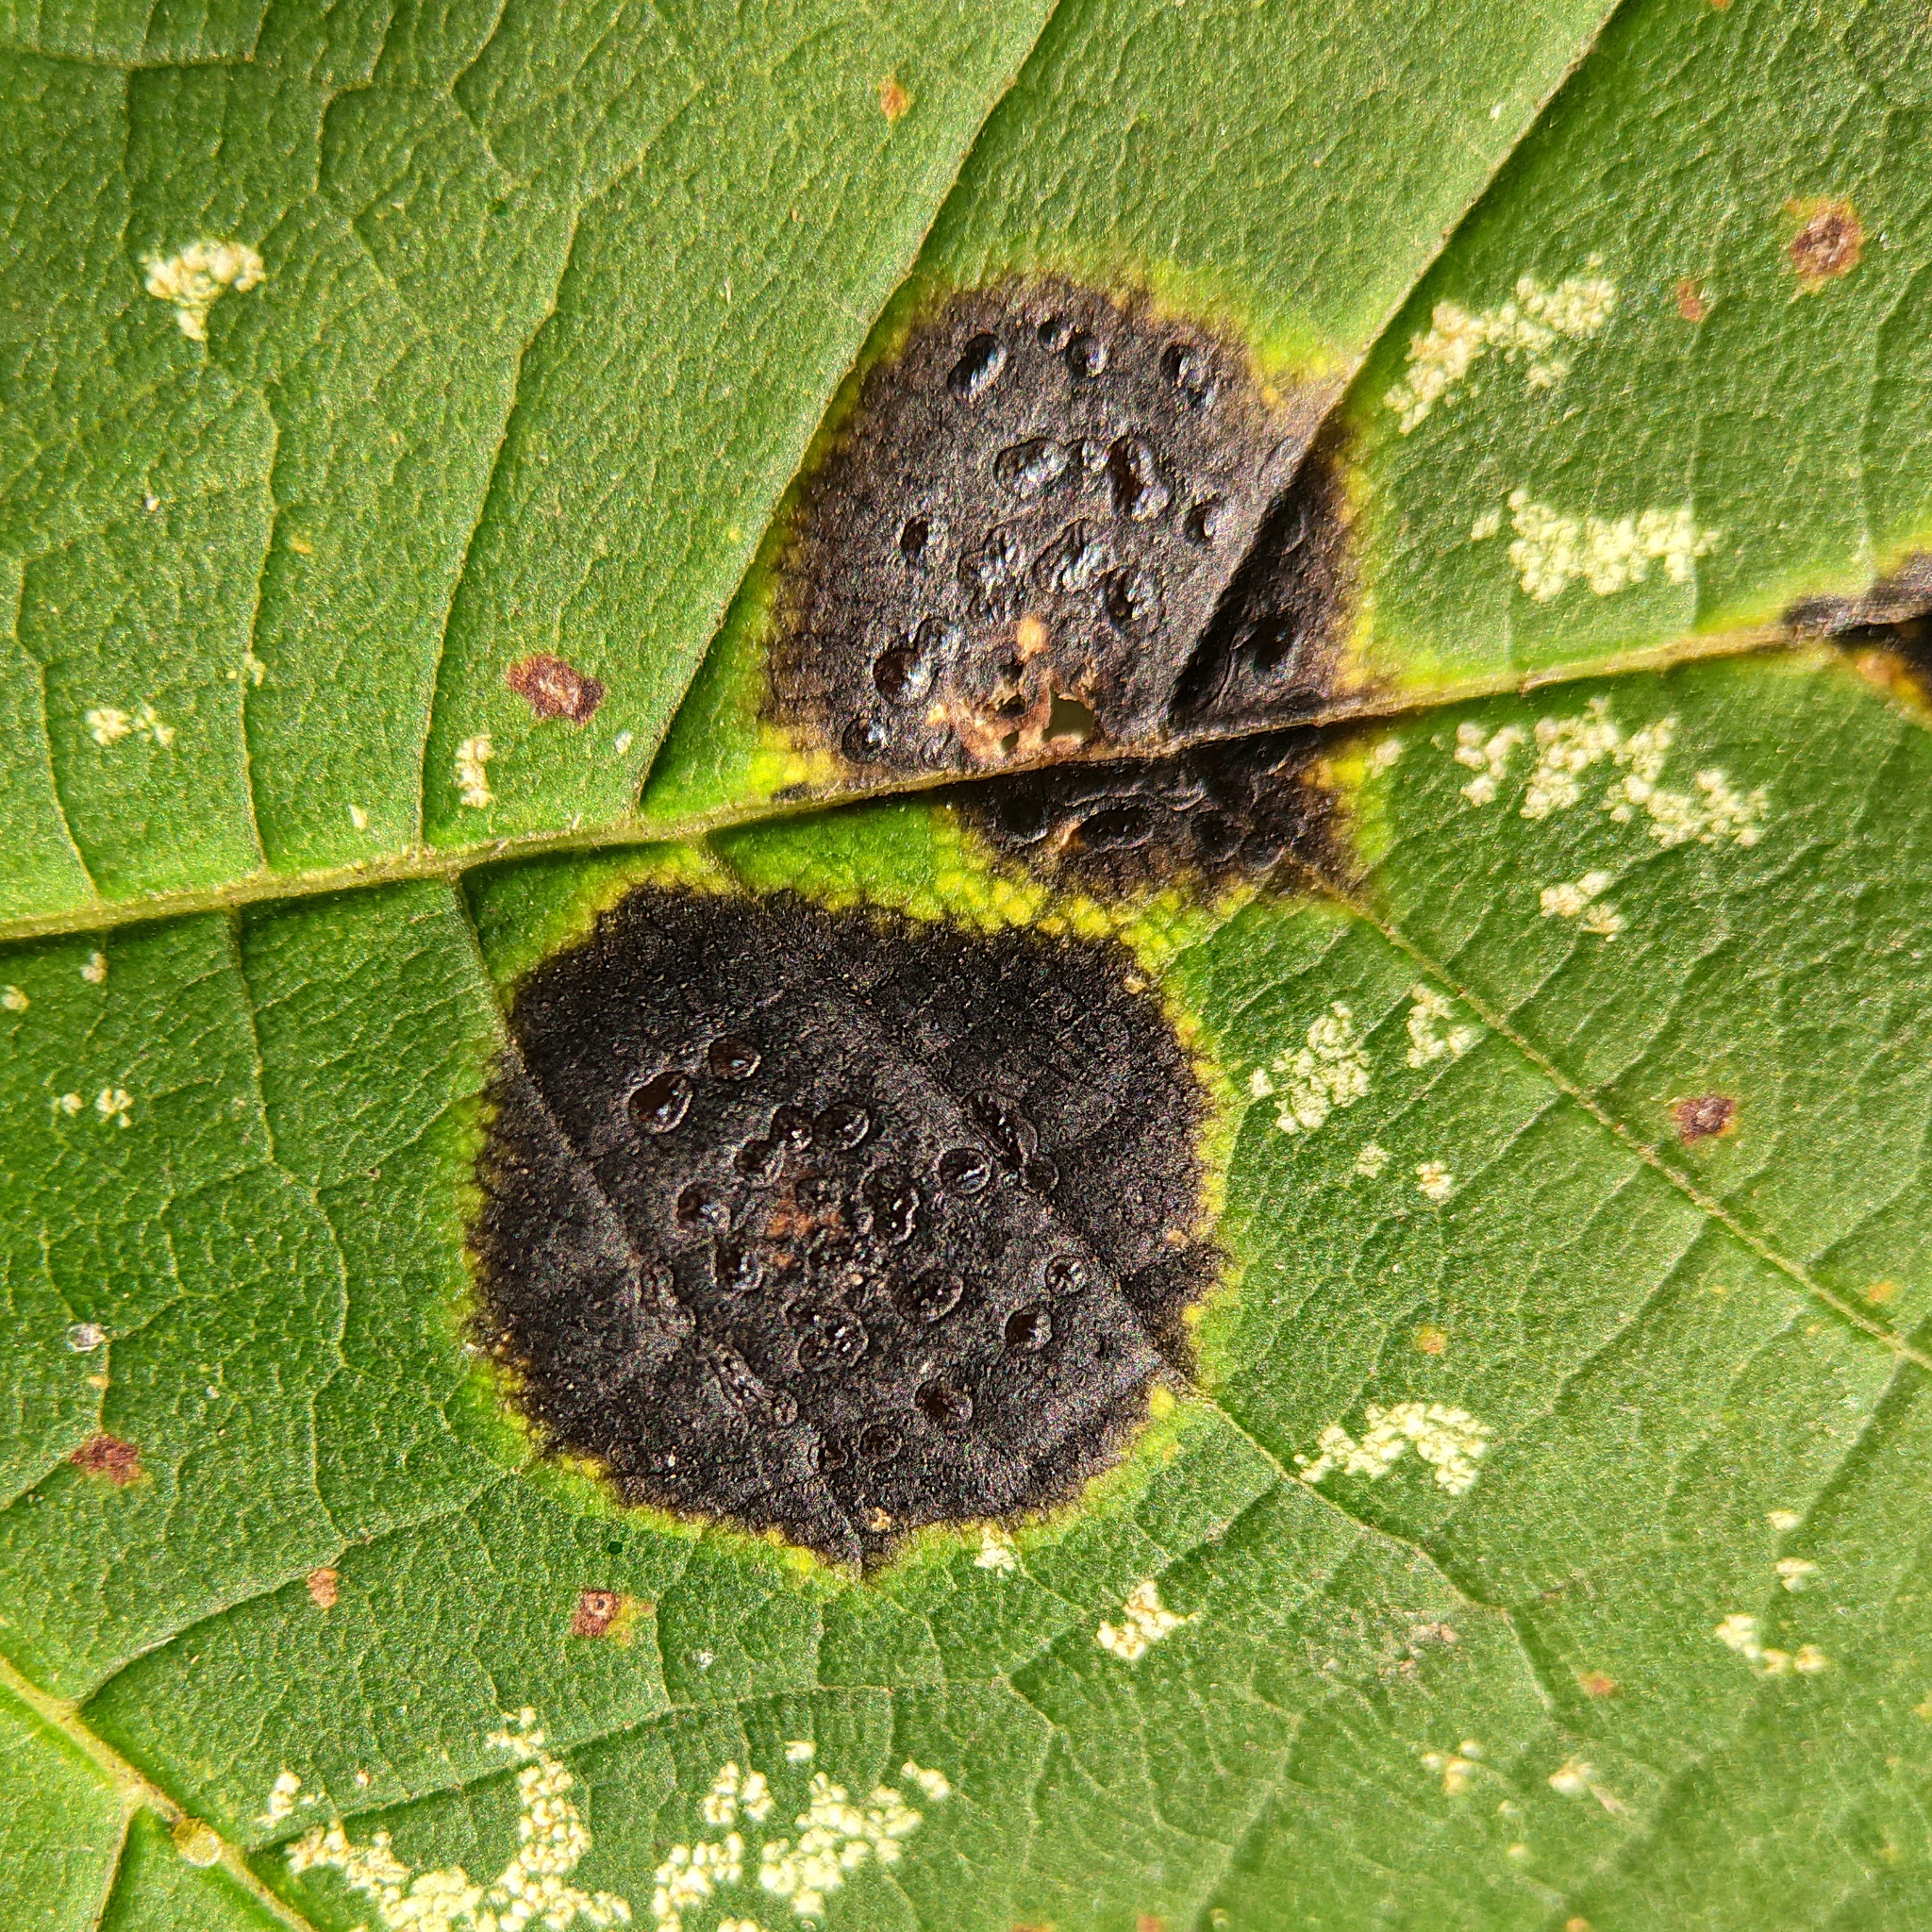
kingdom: Fungi
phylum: Ascomycota
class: Leotiomycetes
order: Rhytismatales
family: Rhytismataceae
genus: Rhytisma
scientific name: Rhytisma acerinum
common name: European tar spot
